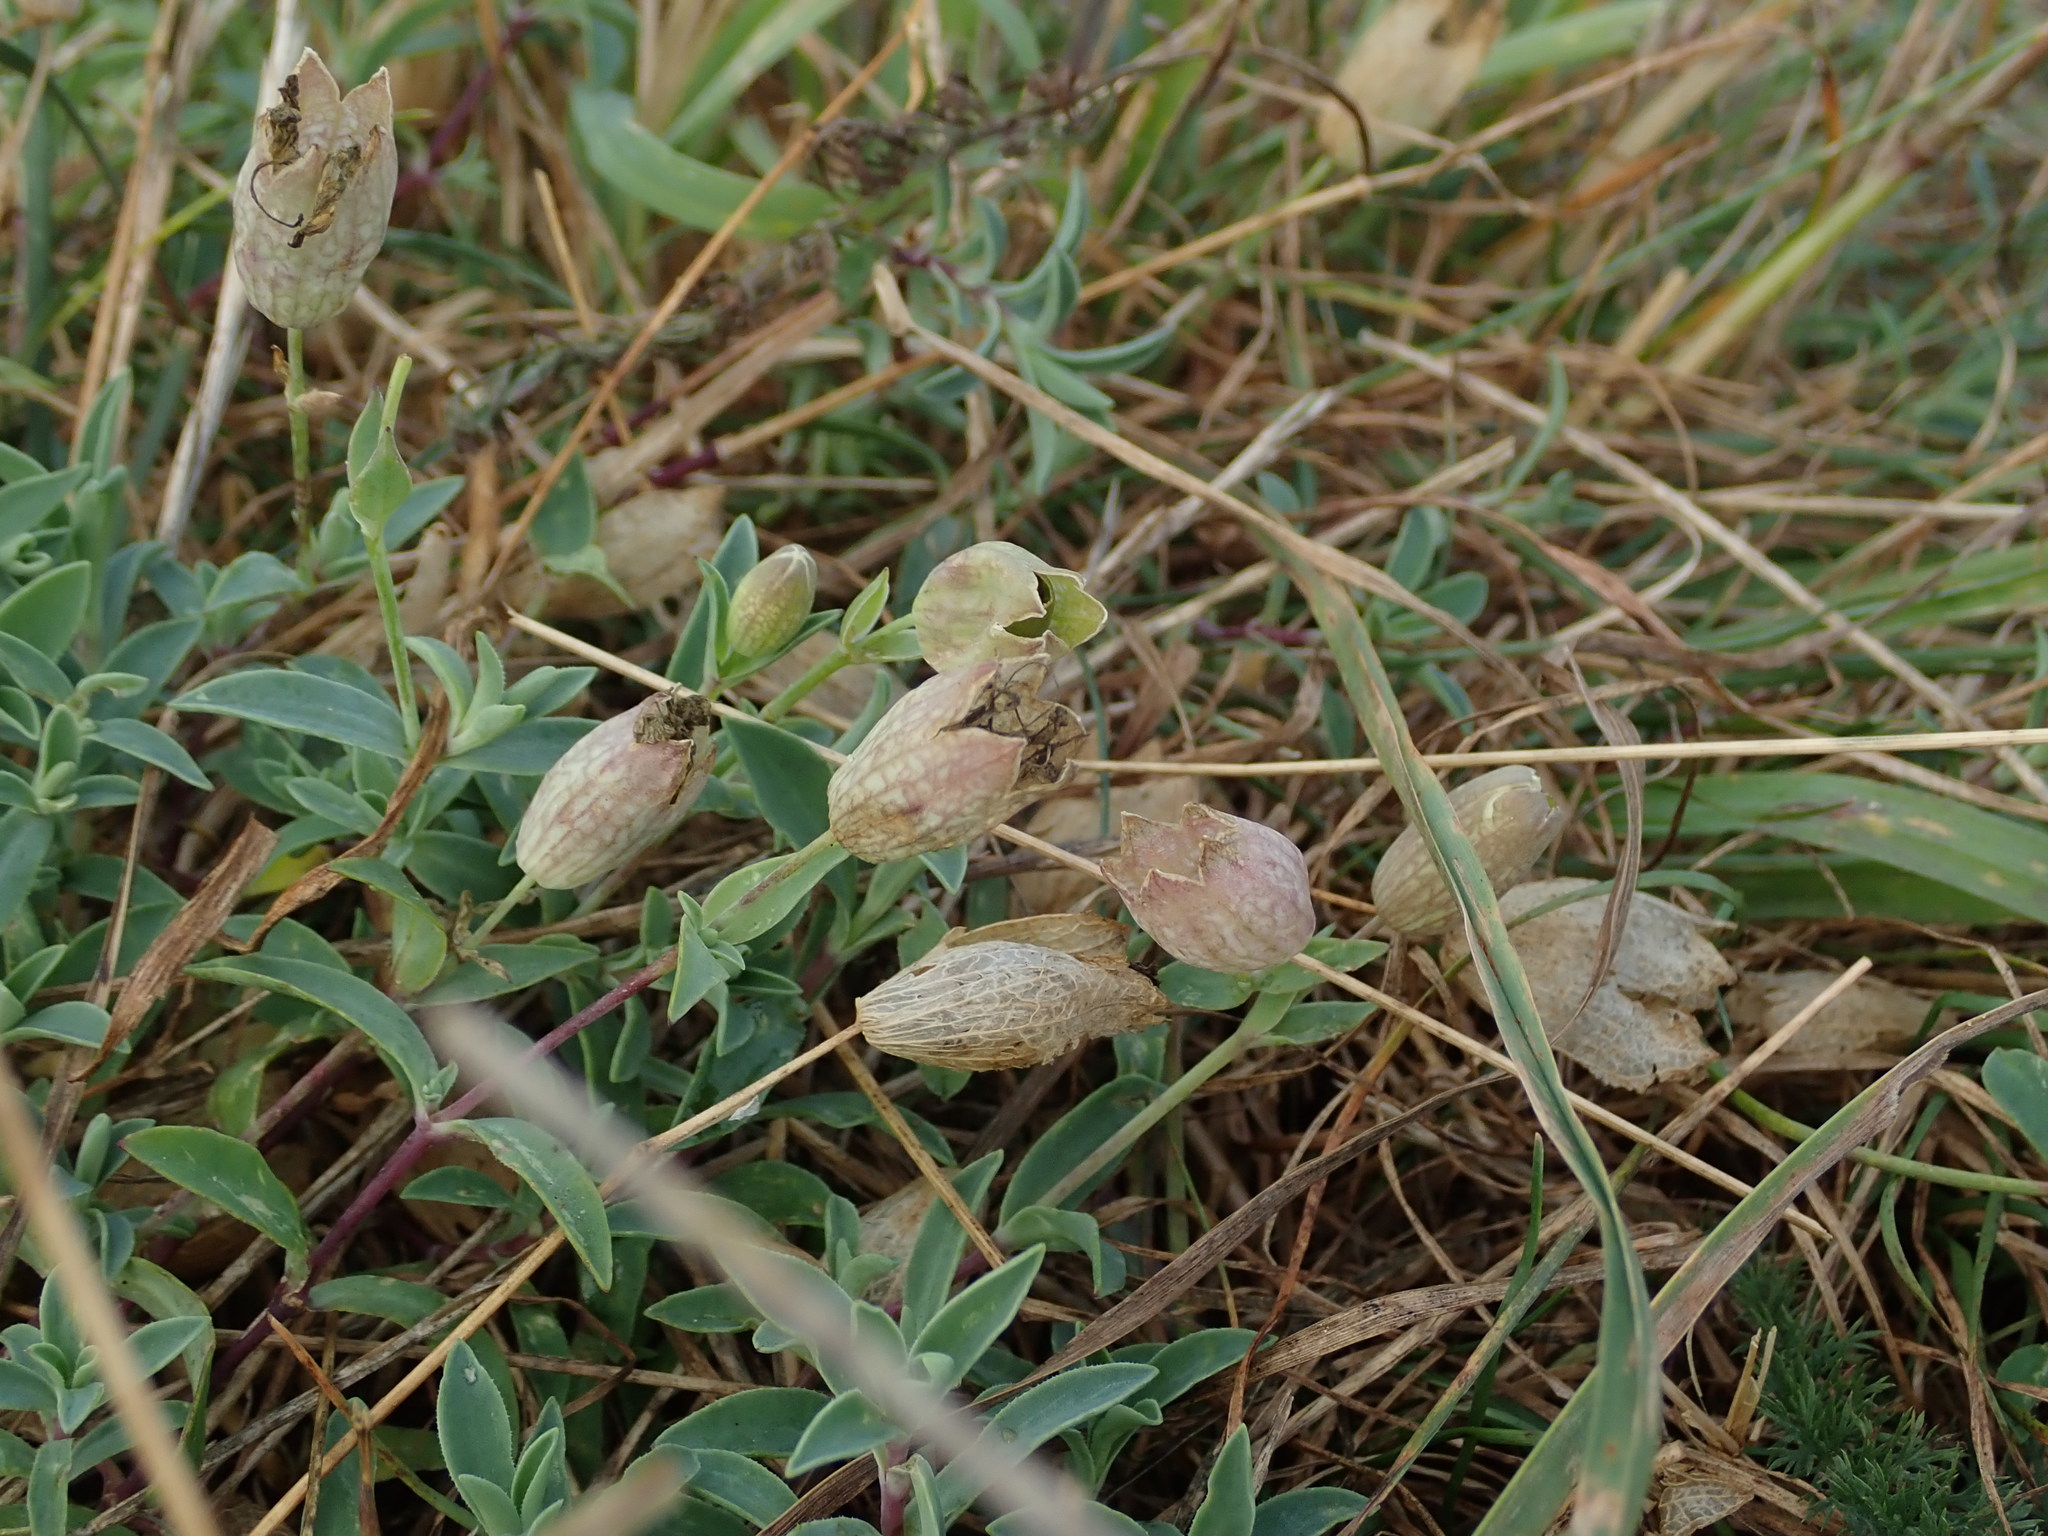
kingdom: Plantae
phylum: Tracheophyta
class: Magnoliopsida
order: Caryophyllales
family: Caryophyllaceae
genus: Silene
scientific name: Silene uniflora
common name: Sea campion
